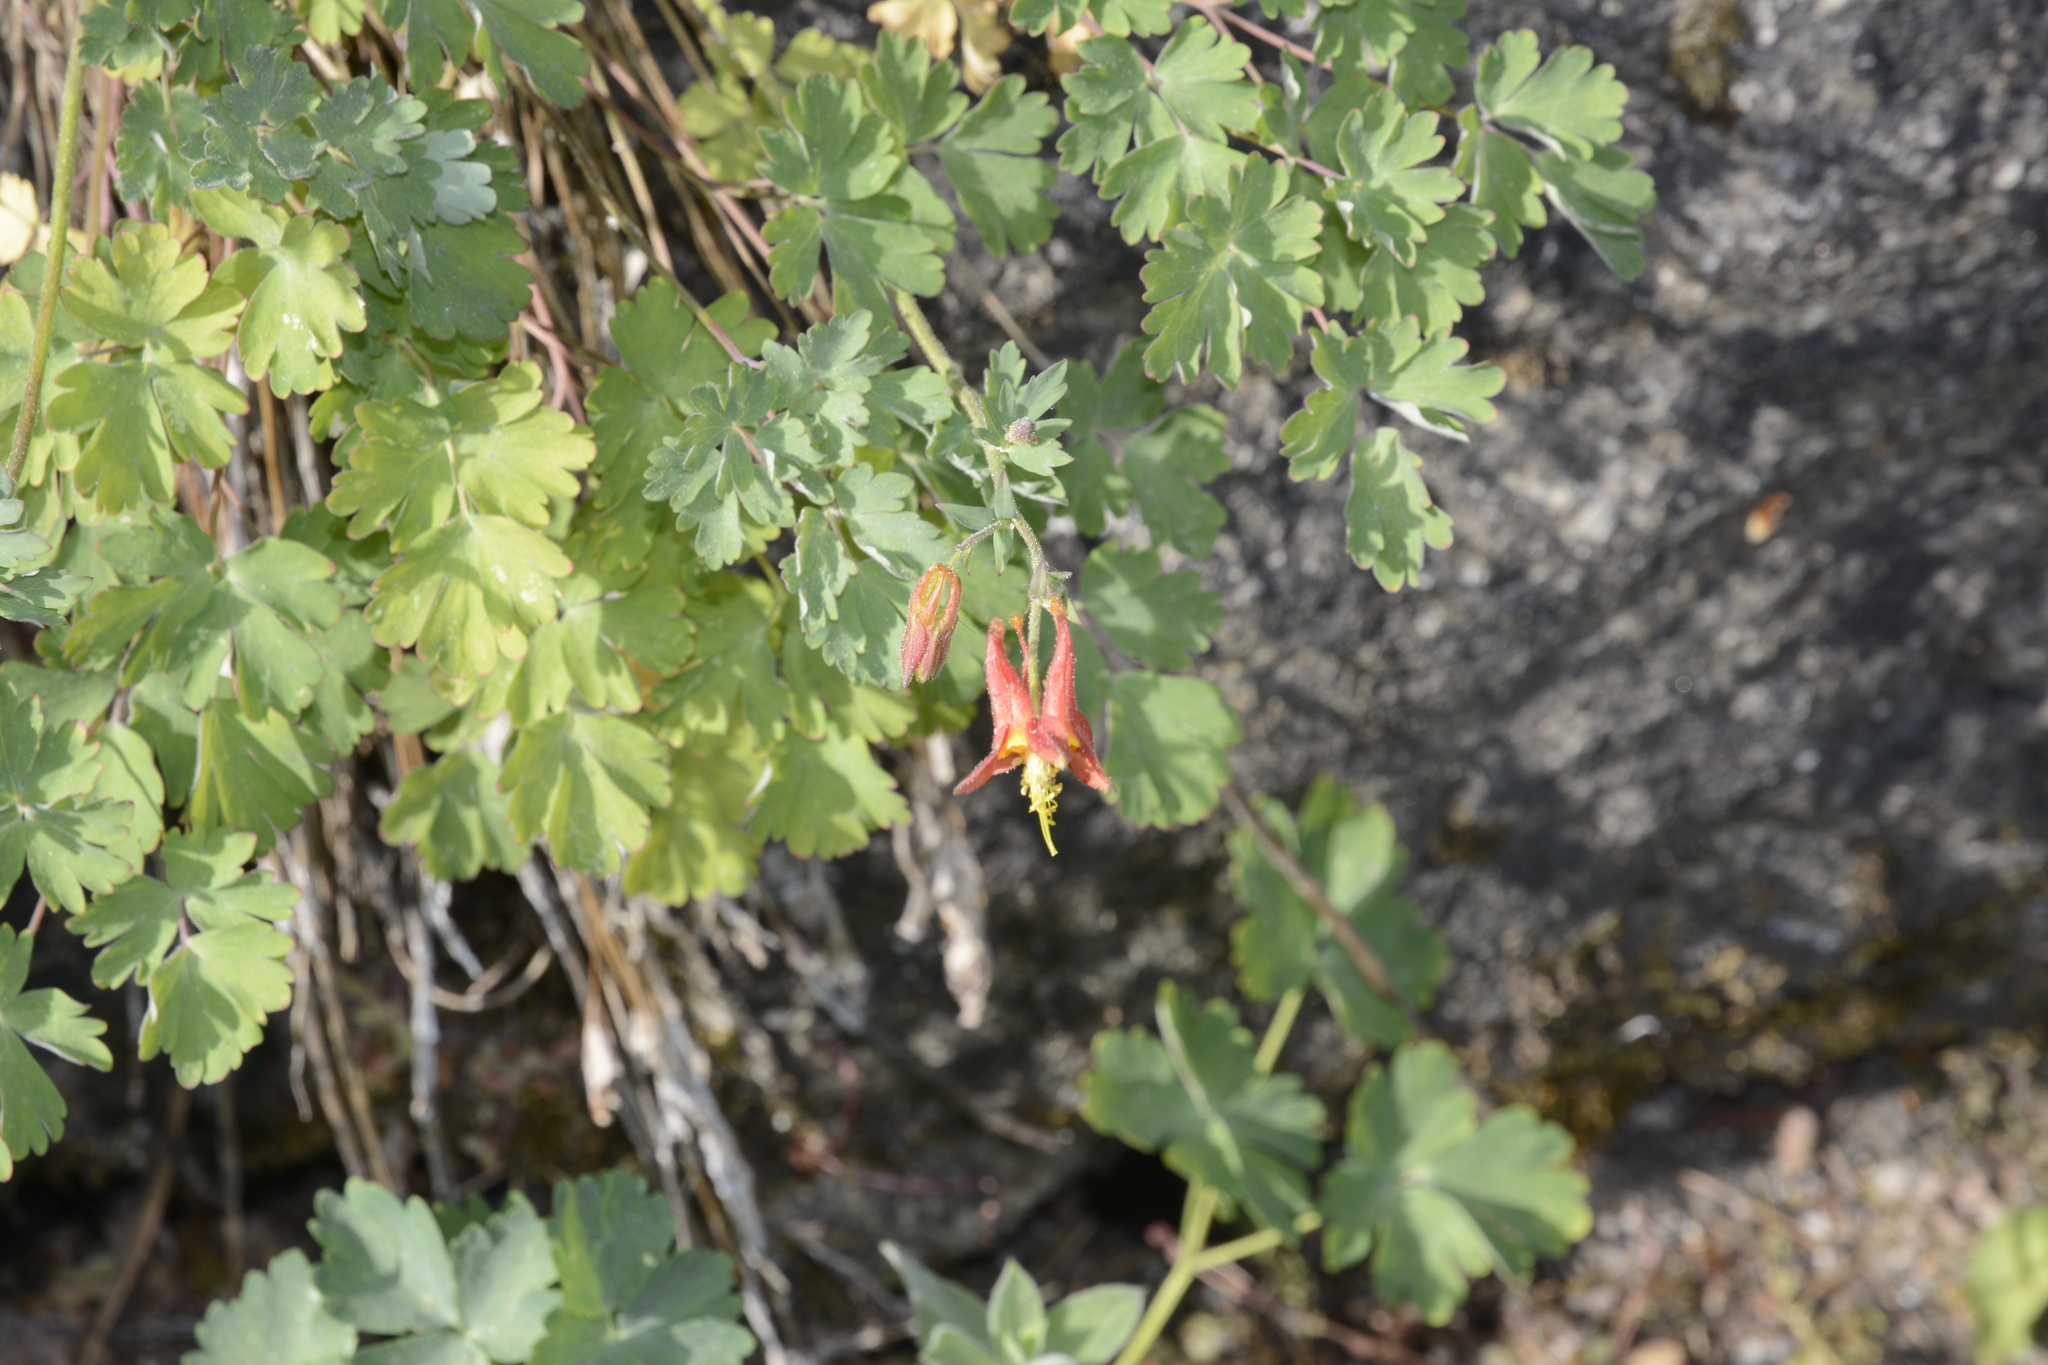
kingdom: Plantae
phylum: Tracheophyta
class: Magnoliopsida
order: Ranunculales
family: Ranunculaceae
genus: Aquilegia
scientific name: Aquilegia formosa
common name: Sitka columbine
